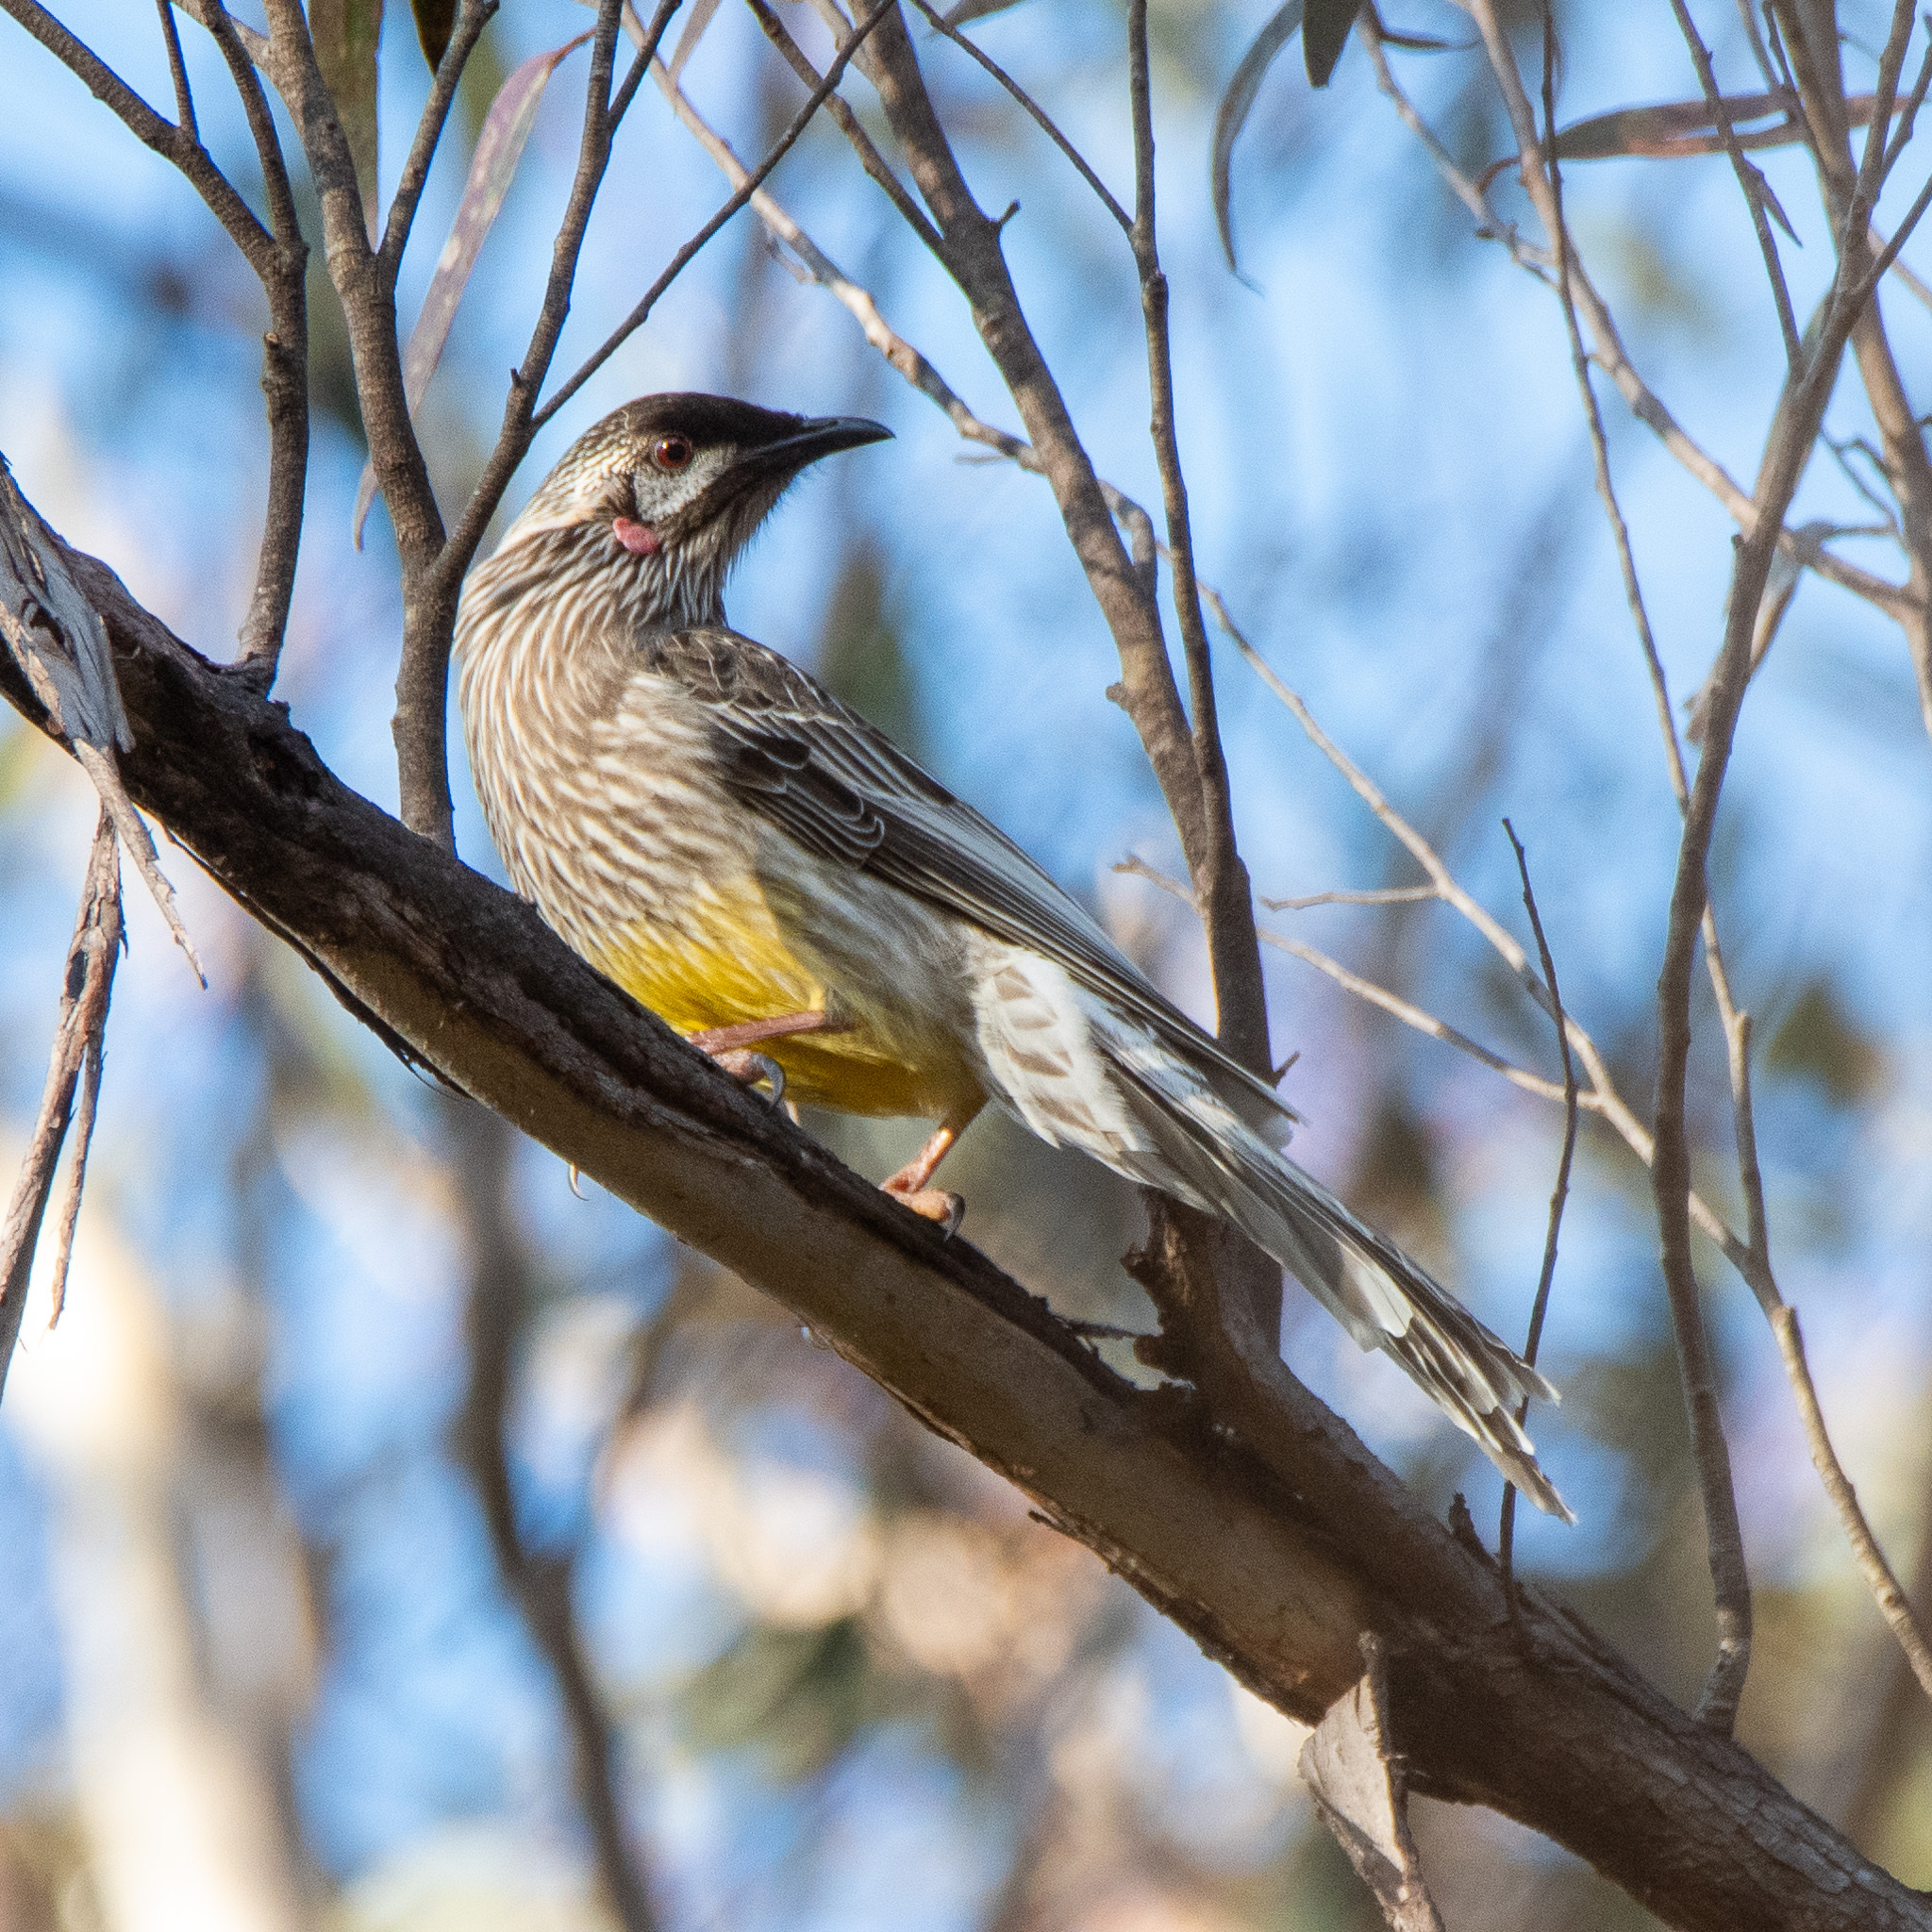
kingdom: Animalia
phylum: Chordata
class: Aves
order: Passeriformes
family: Meliphagidae
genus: Anthochaera
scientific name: Anthochaera carunculata
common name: Red wattlebird
